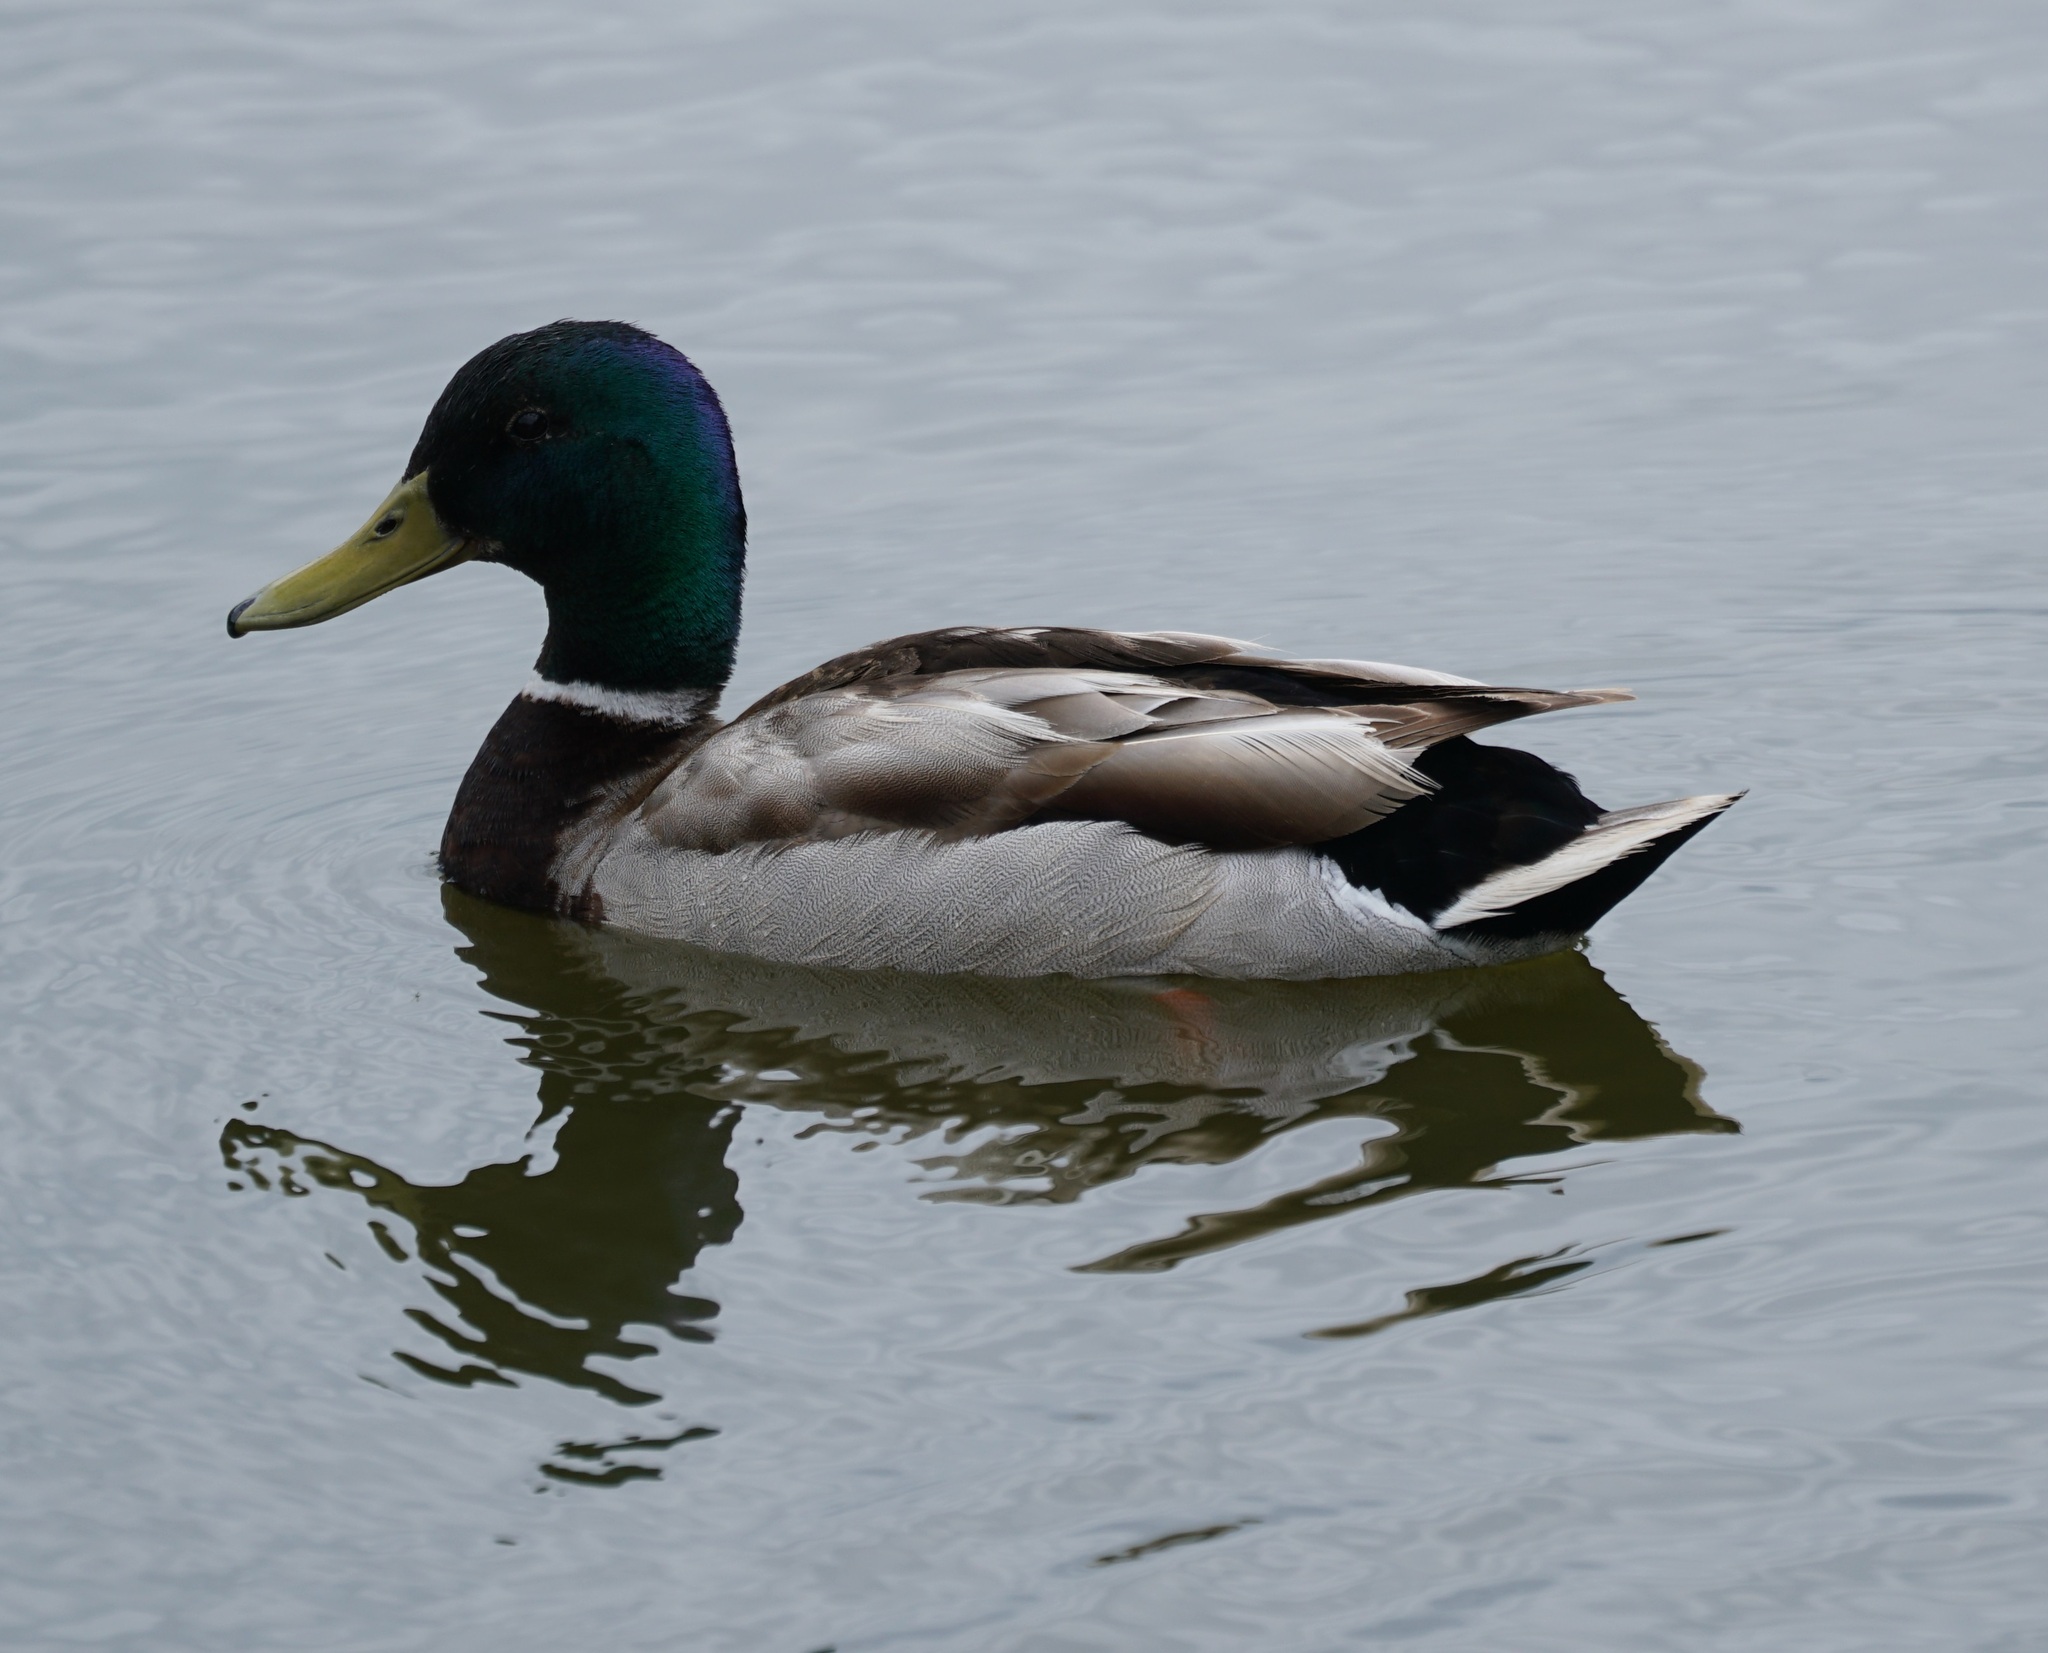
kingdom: Animalia
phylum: Chordata
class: Aves
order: Anseriformes
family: Anatidae
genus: Anas
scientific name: Anas platyrhynchos
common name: Mallard
